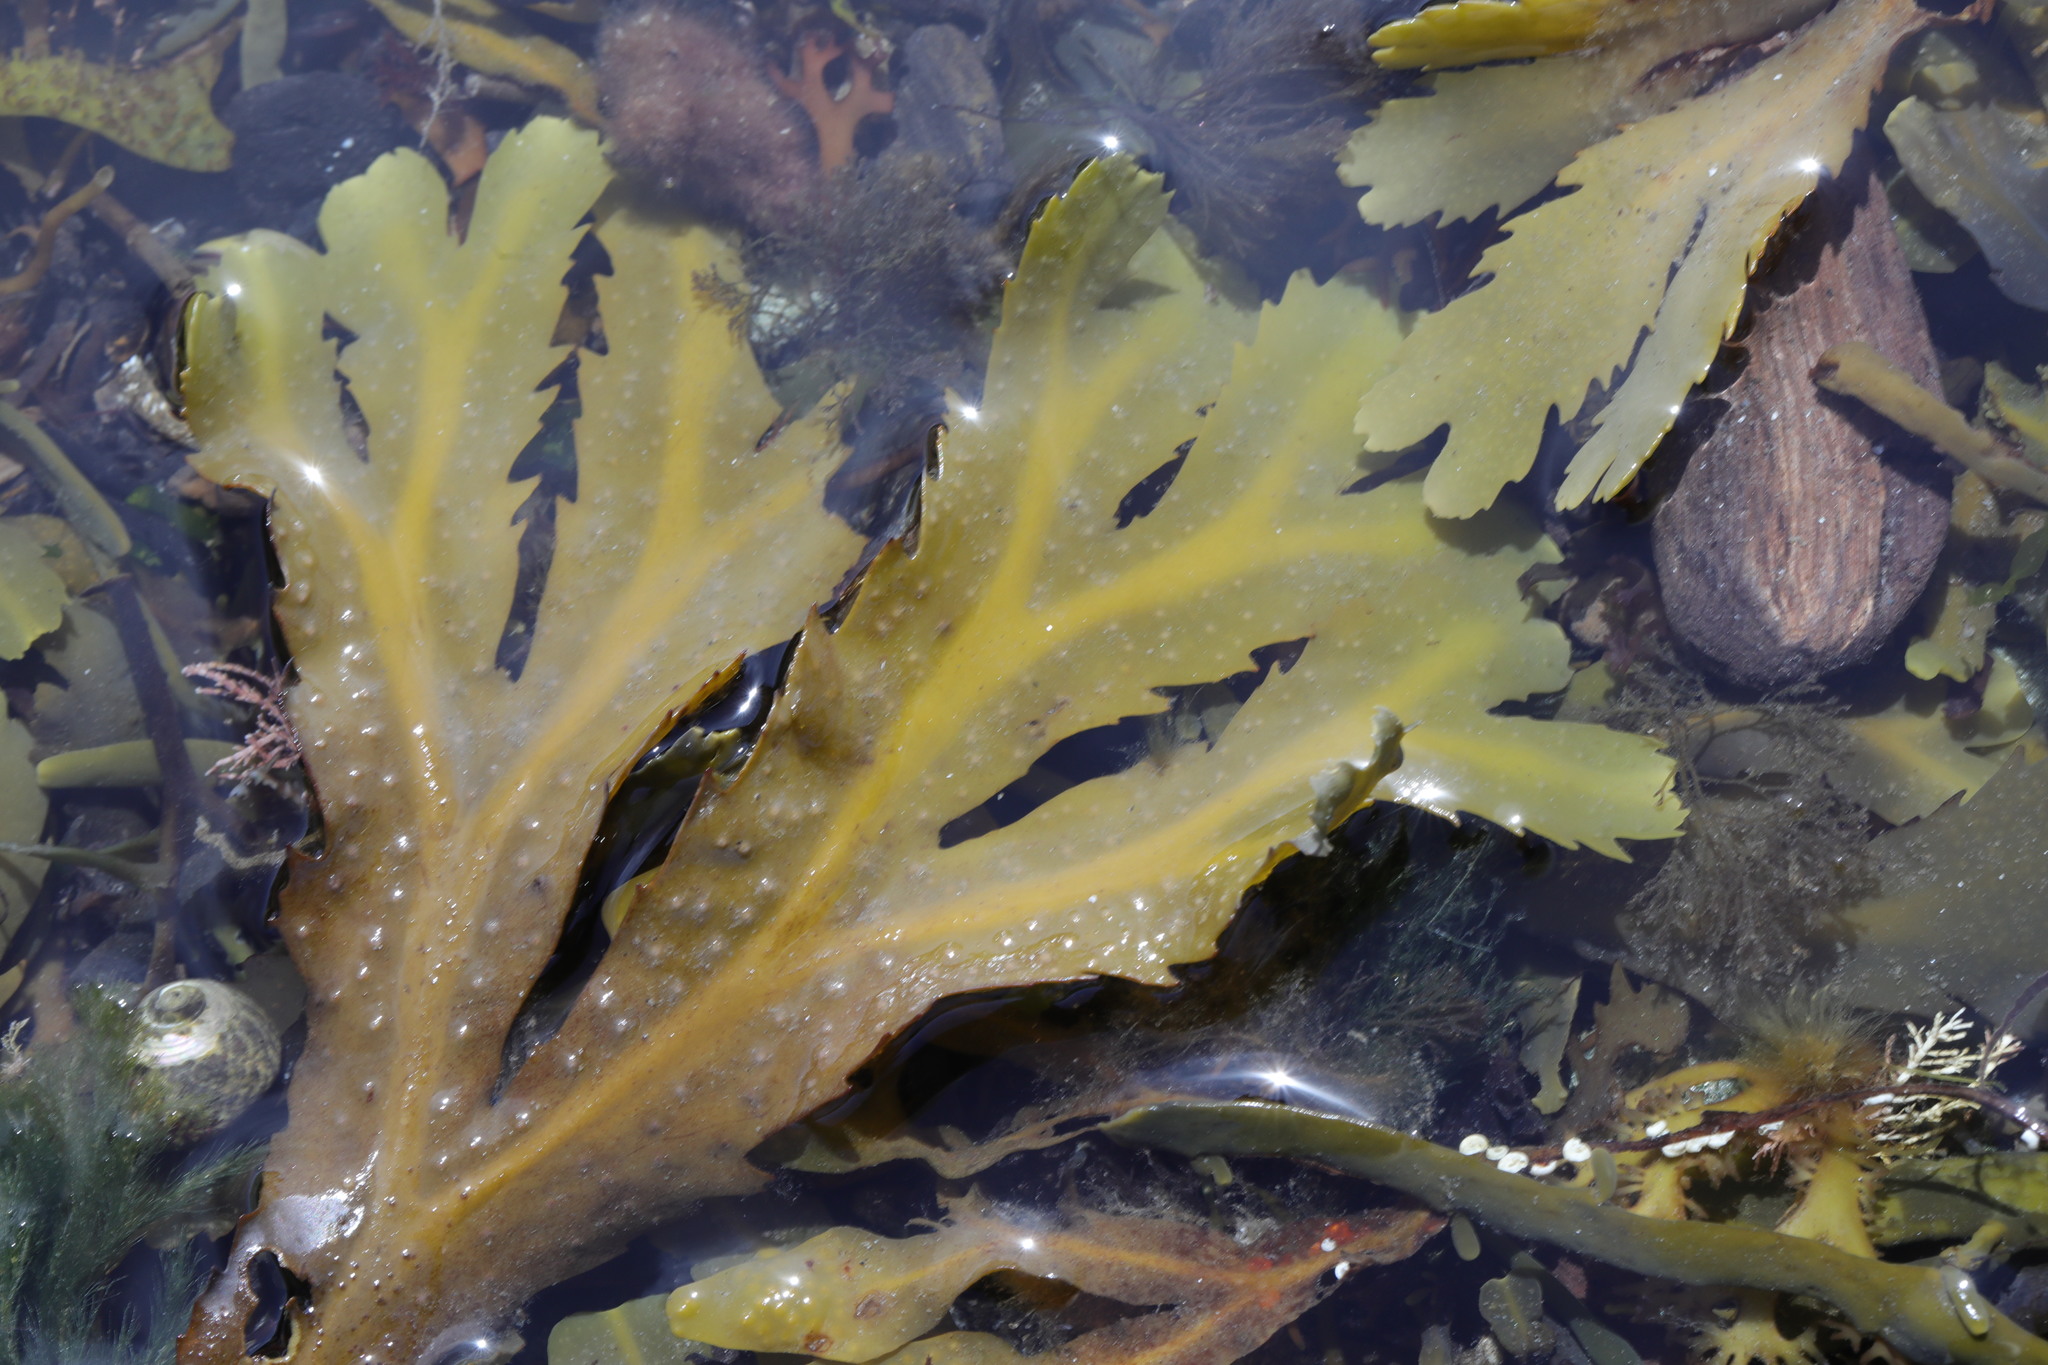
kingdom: Chromista
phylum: Ochrophyta
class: Phaeophyceae
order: Fucales
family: Fucaceae
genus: Fucus
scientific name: Fucus serratus
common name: Toothed wrack
